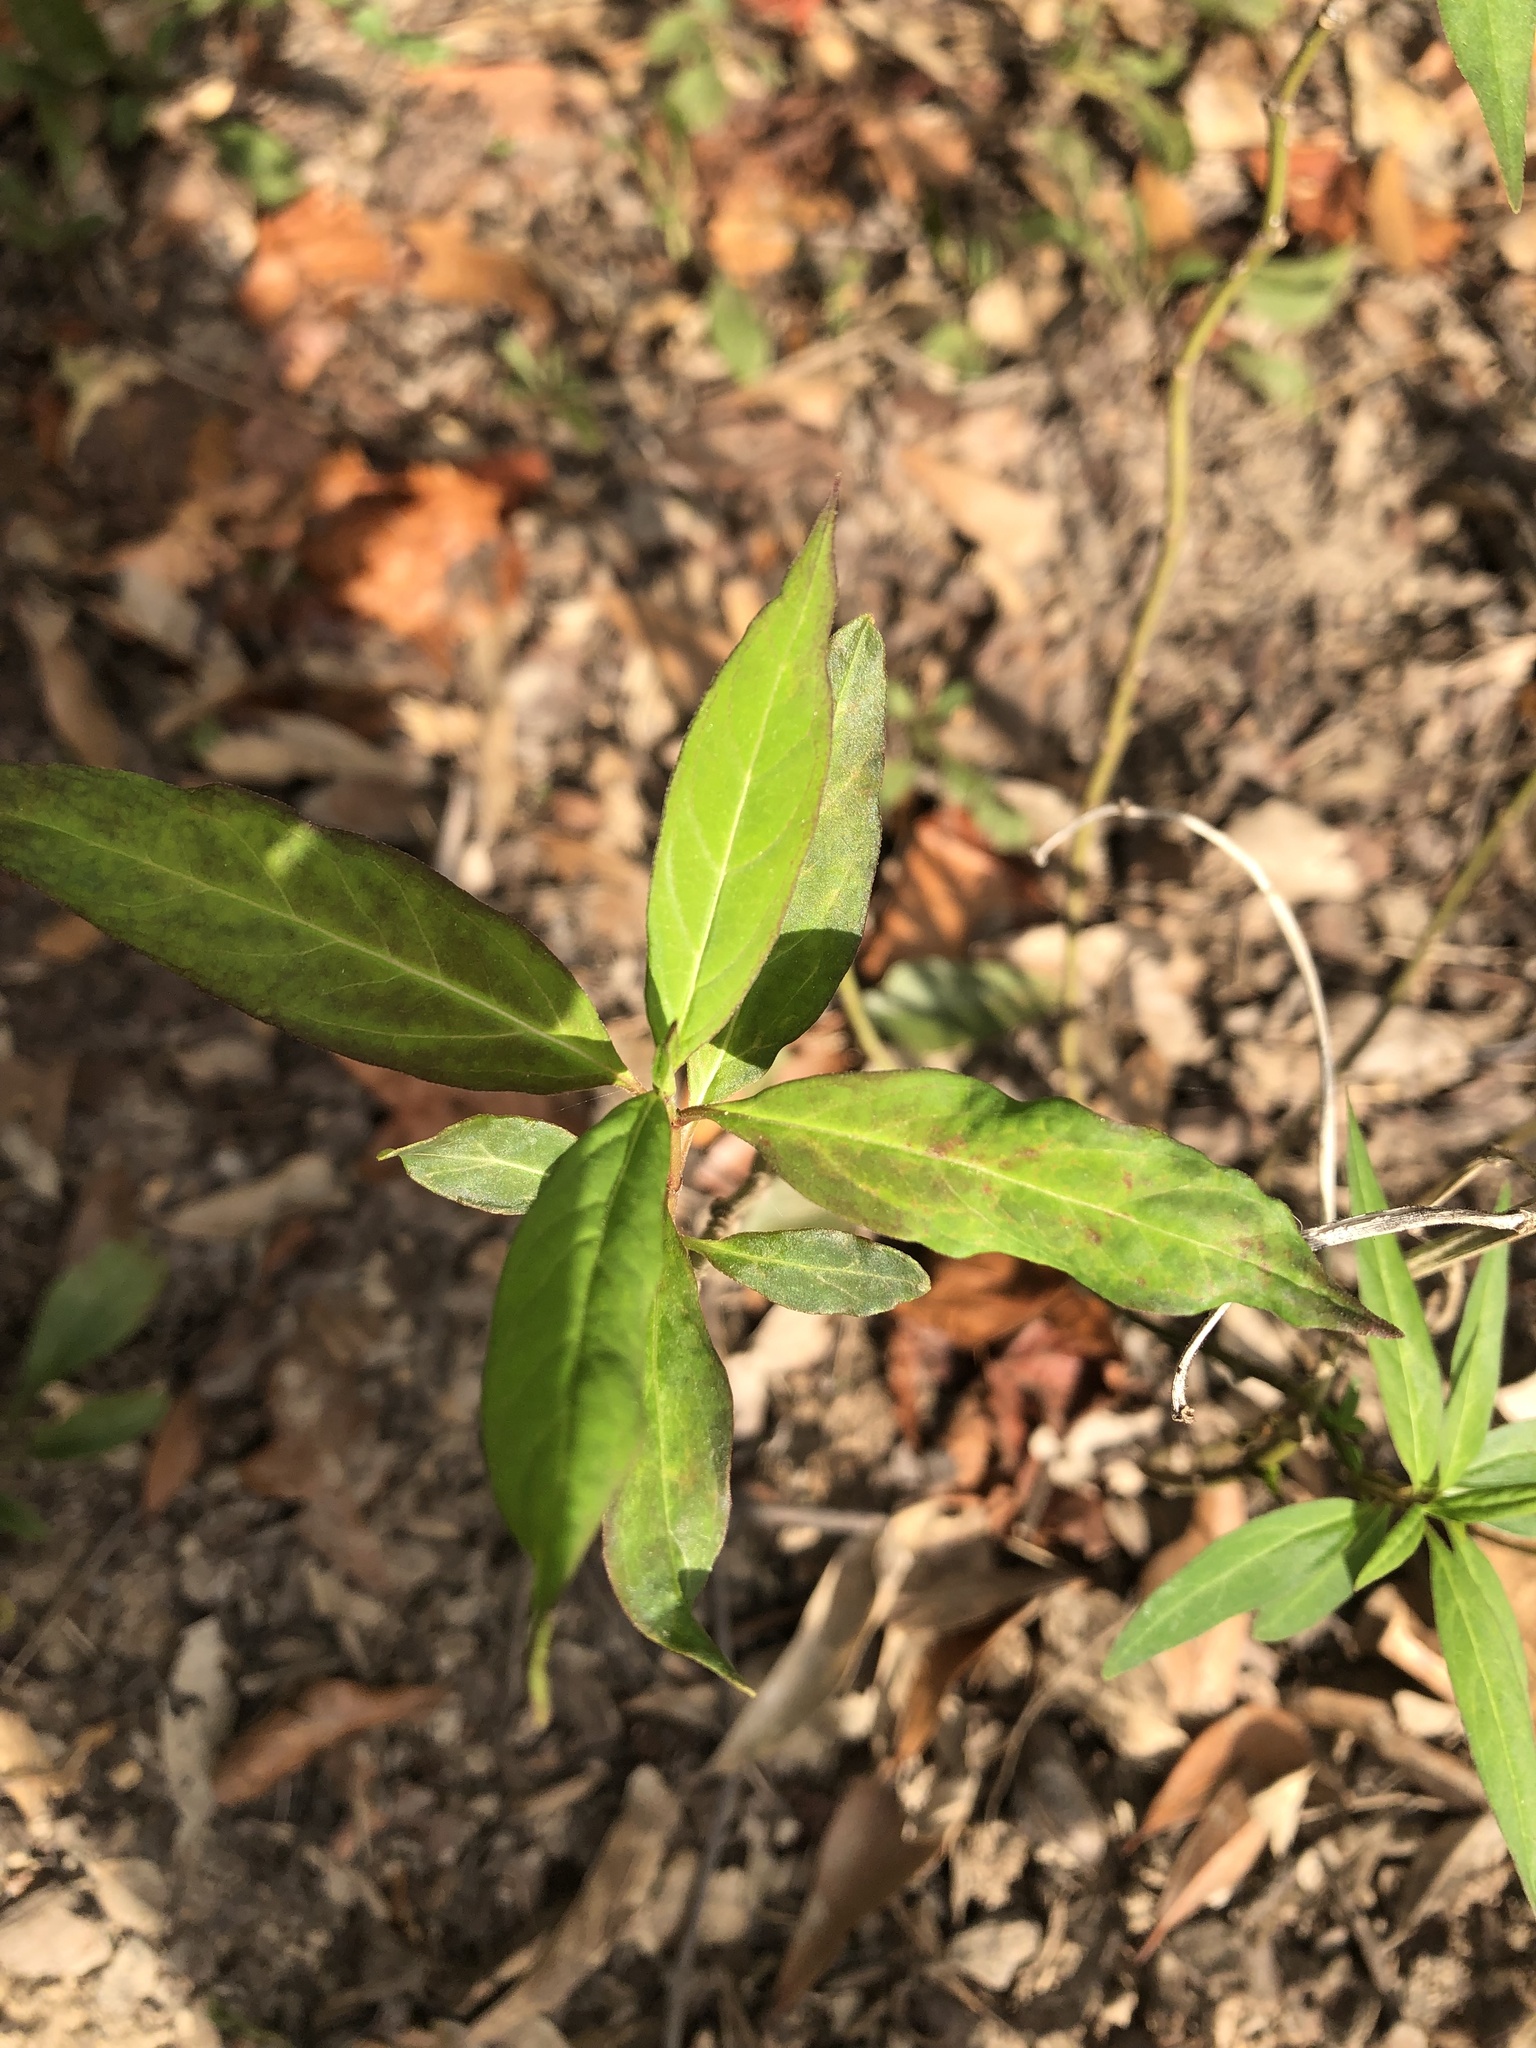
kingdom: Plantae
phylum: Tracheophyta
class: Magnoliopsida
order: Gentianales
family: Apocynaceae
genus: Asclepias
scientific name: Asclepias perennis
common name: Smooth-seed milkweed
